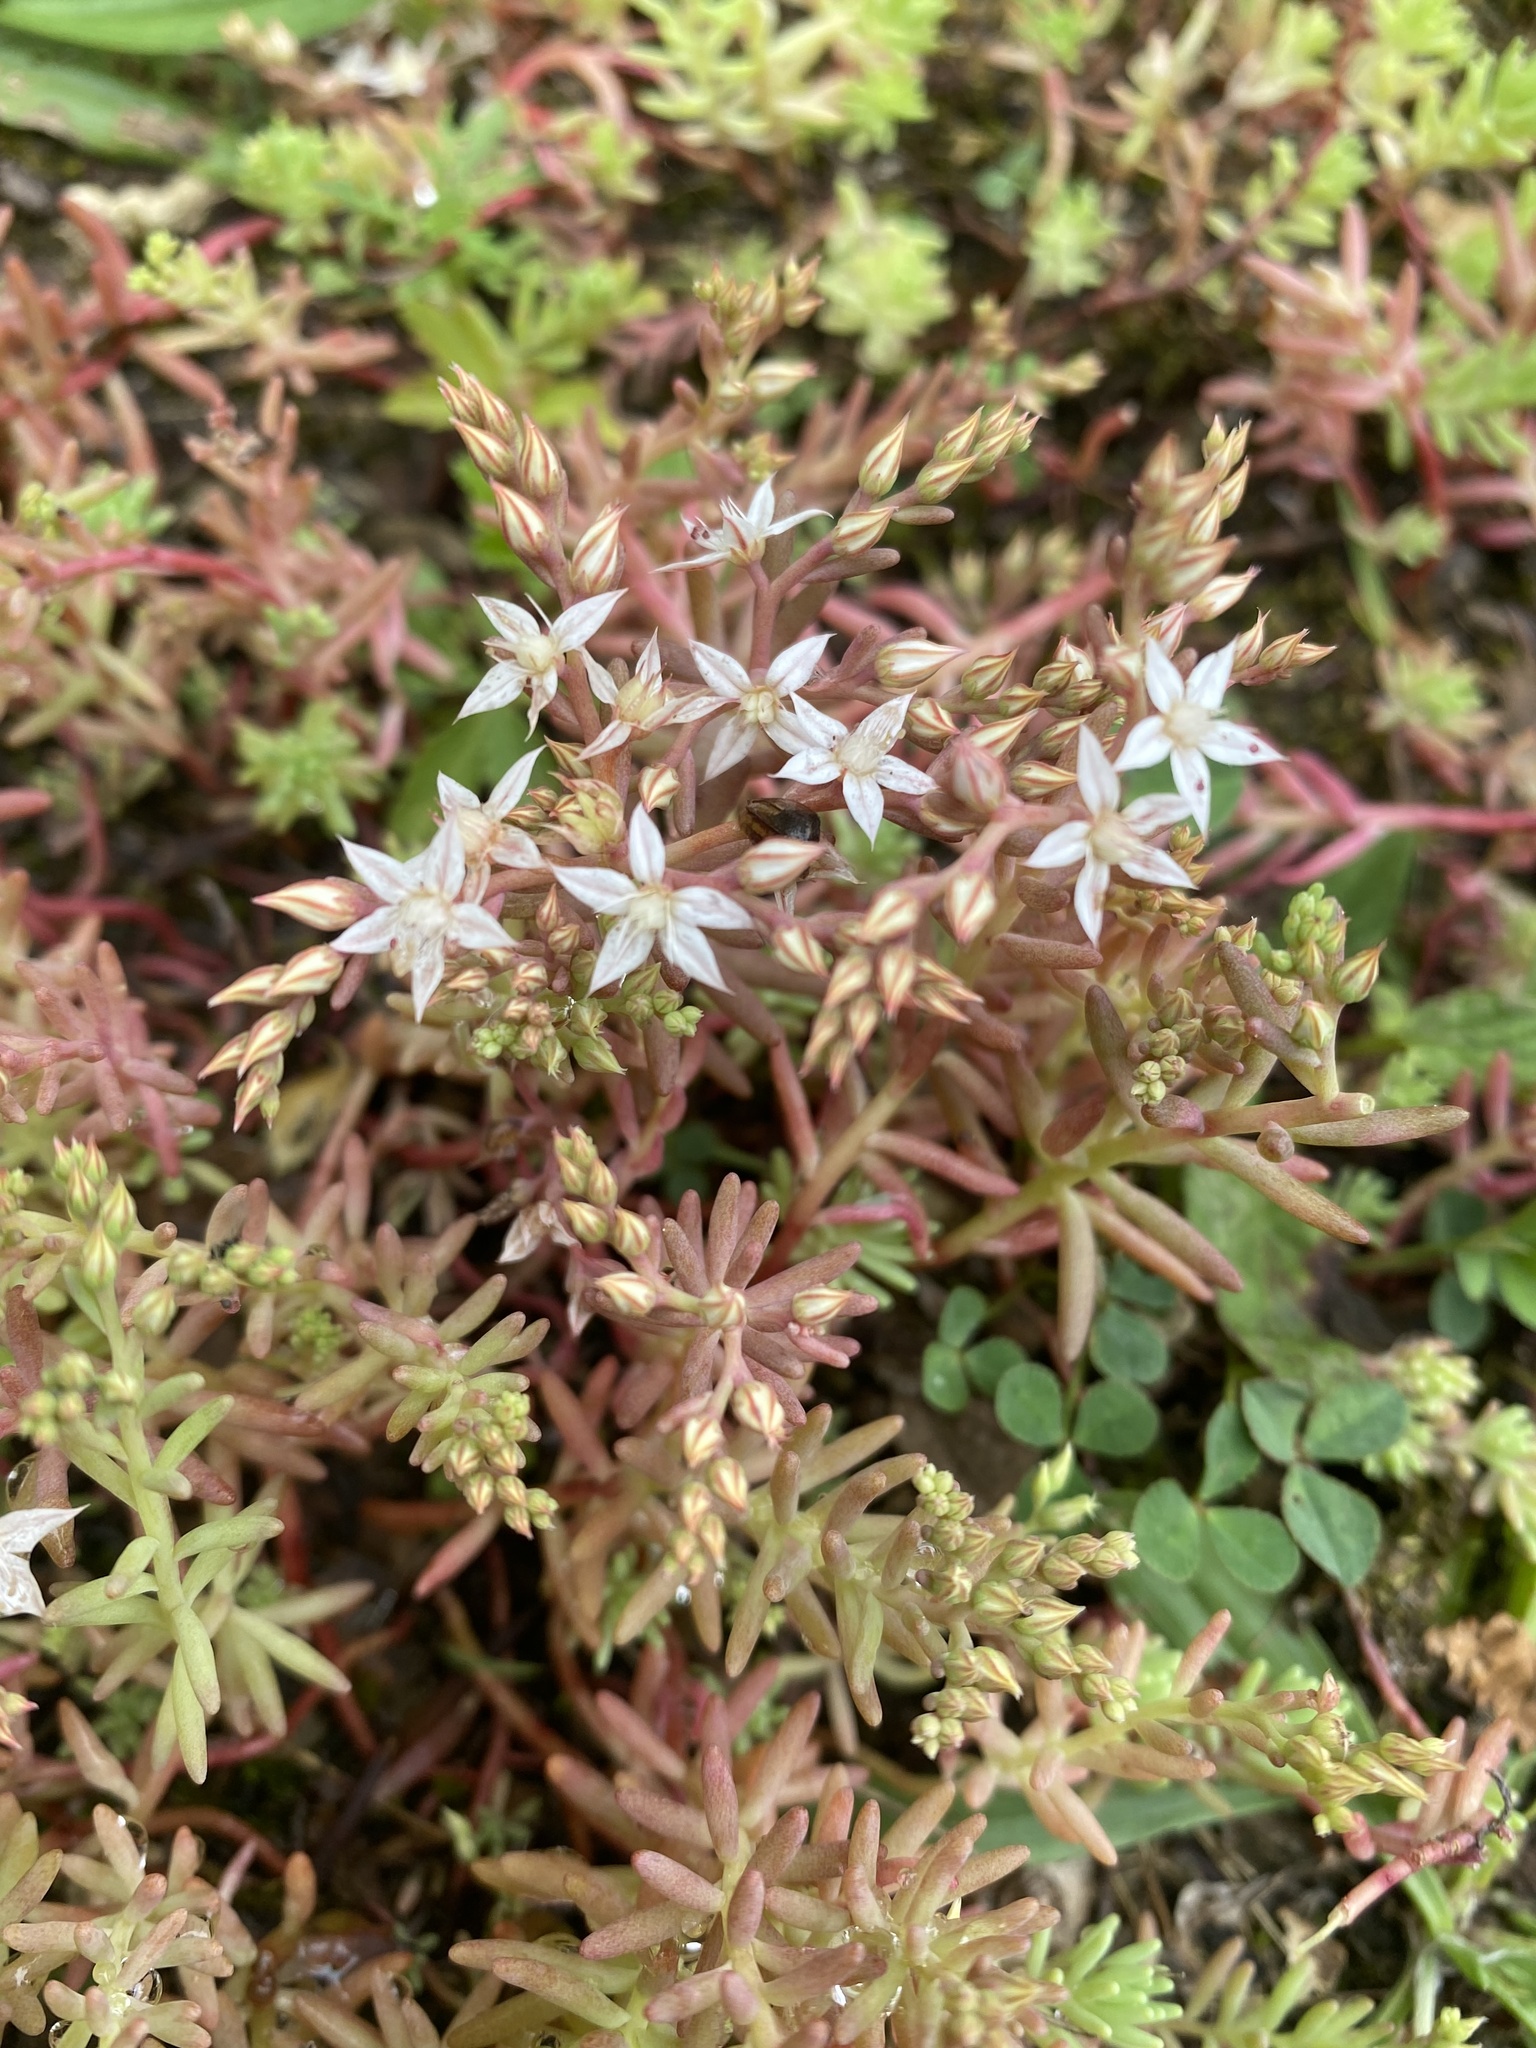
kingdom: Plantae
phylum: Tracheophyta
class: Magnoliopsida
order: Saxifragales
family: Crassulaceae
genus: Sedum
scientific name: Sedum pallidum
